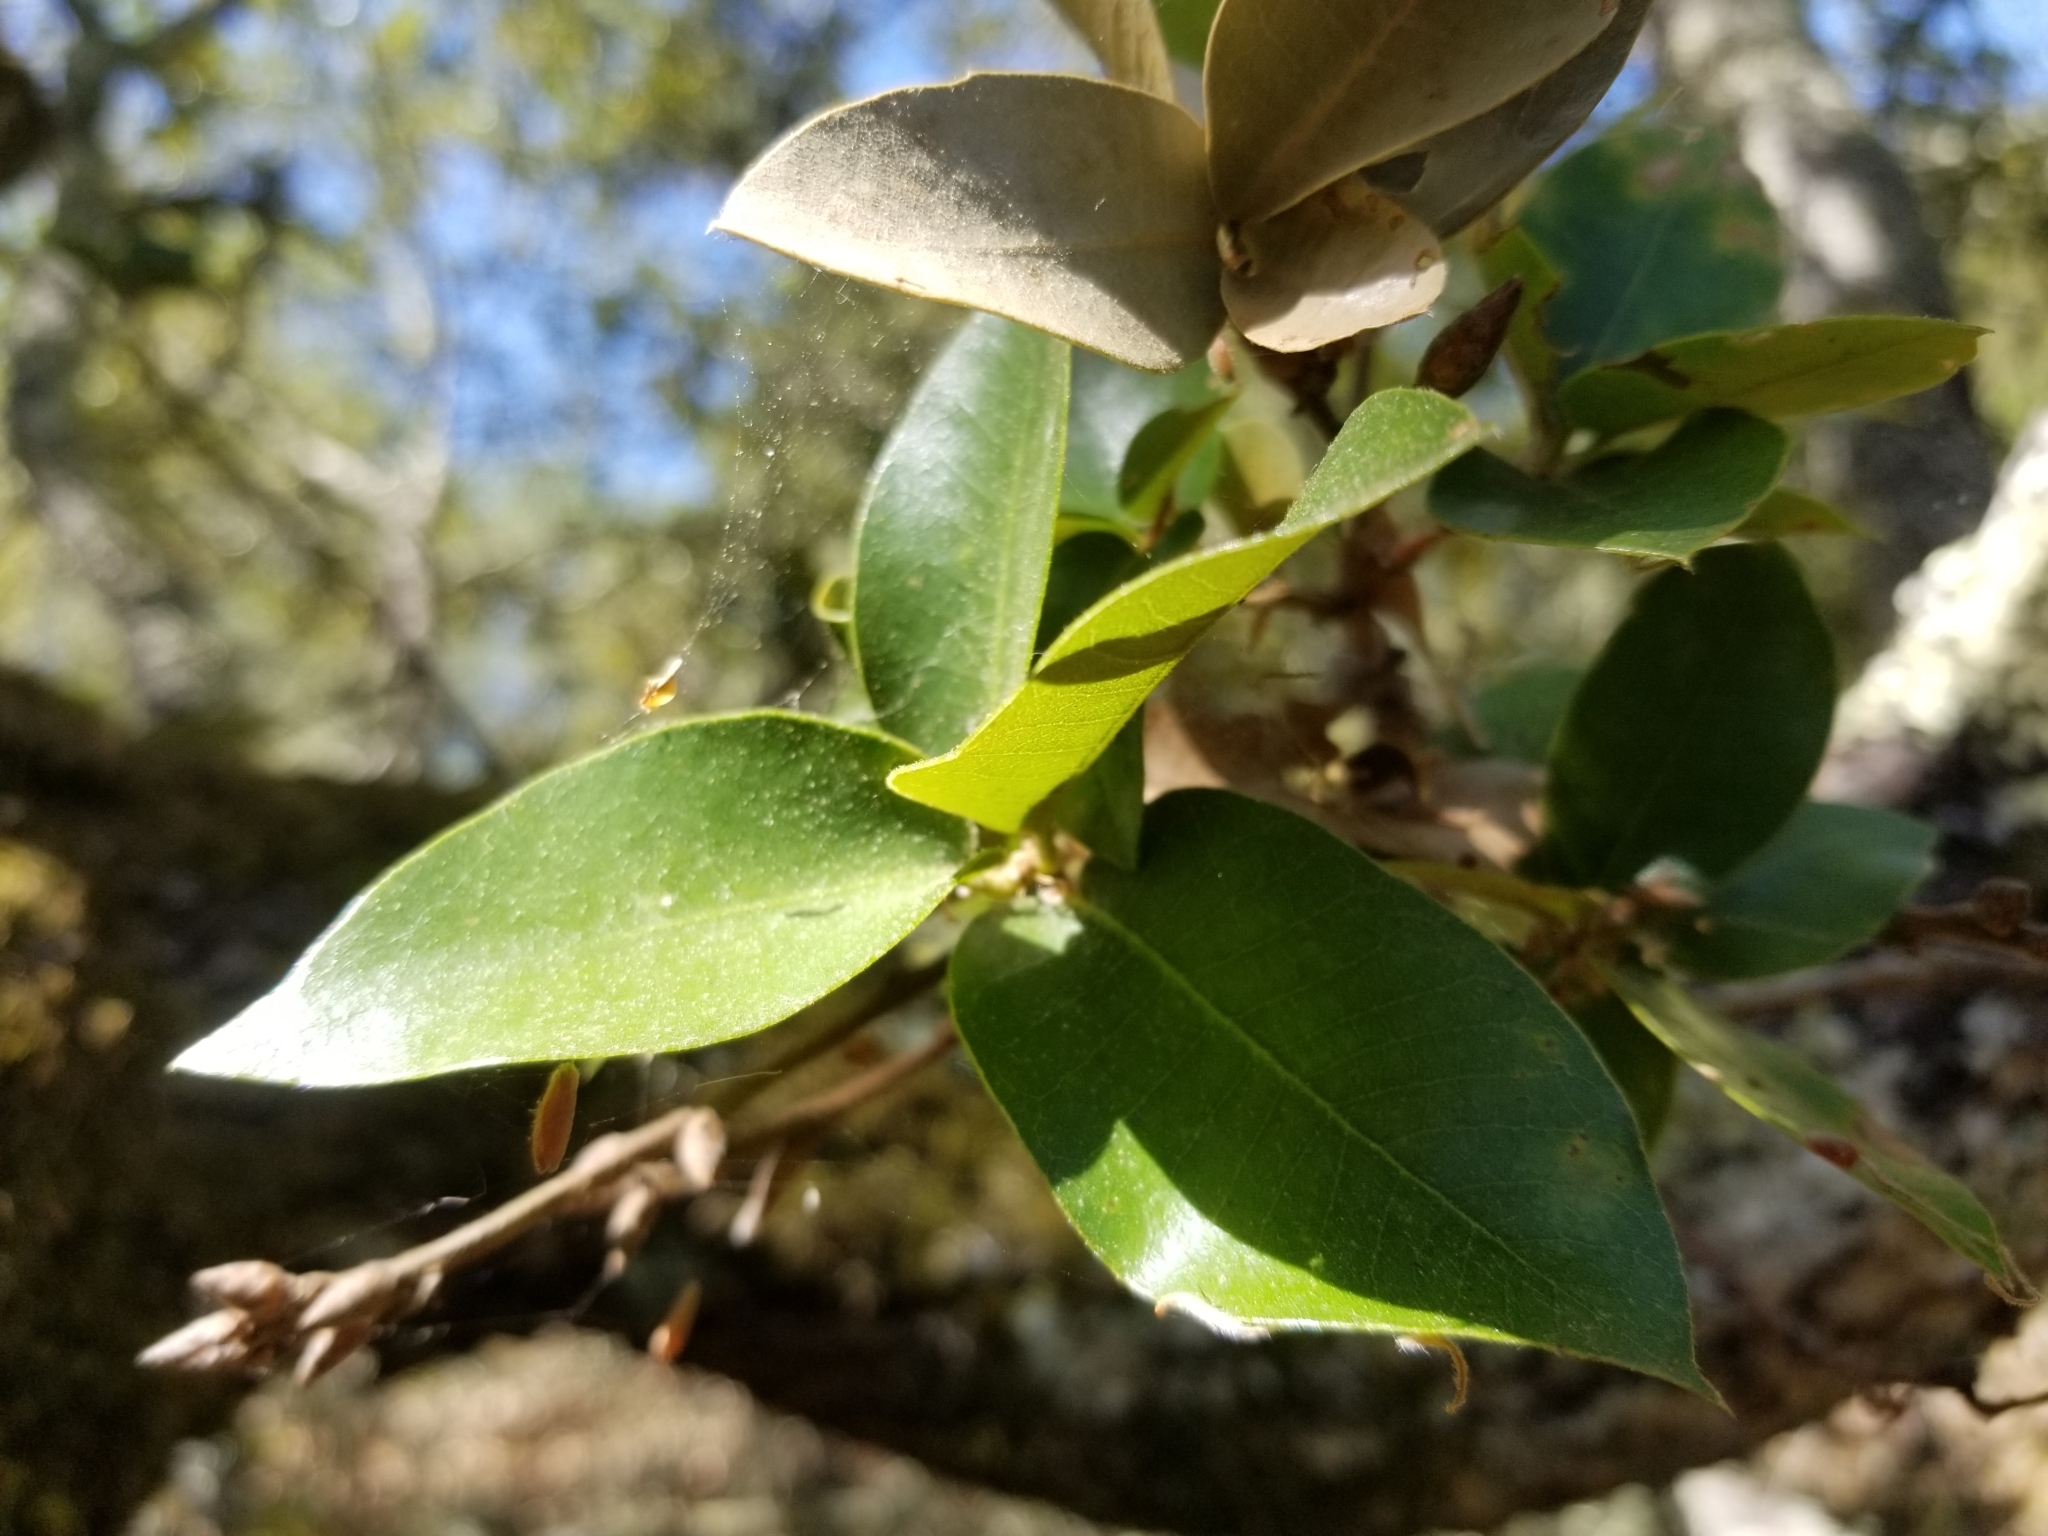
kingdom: Plantae
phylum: Tracheophyta
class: Magnoliopsida
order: Fagales
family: Fagaceae
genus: Quercus
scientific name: Quercus chrysolepis
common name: Canyon live oak
